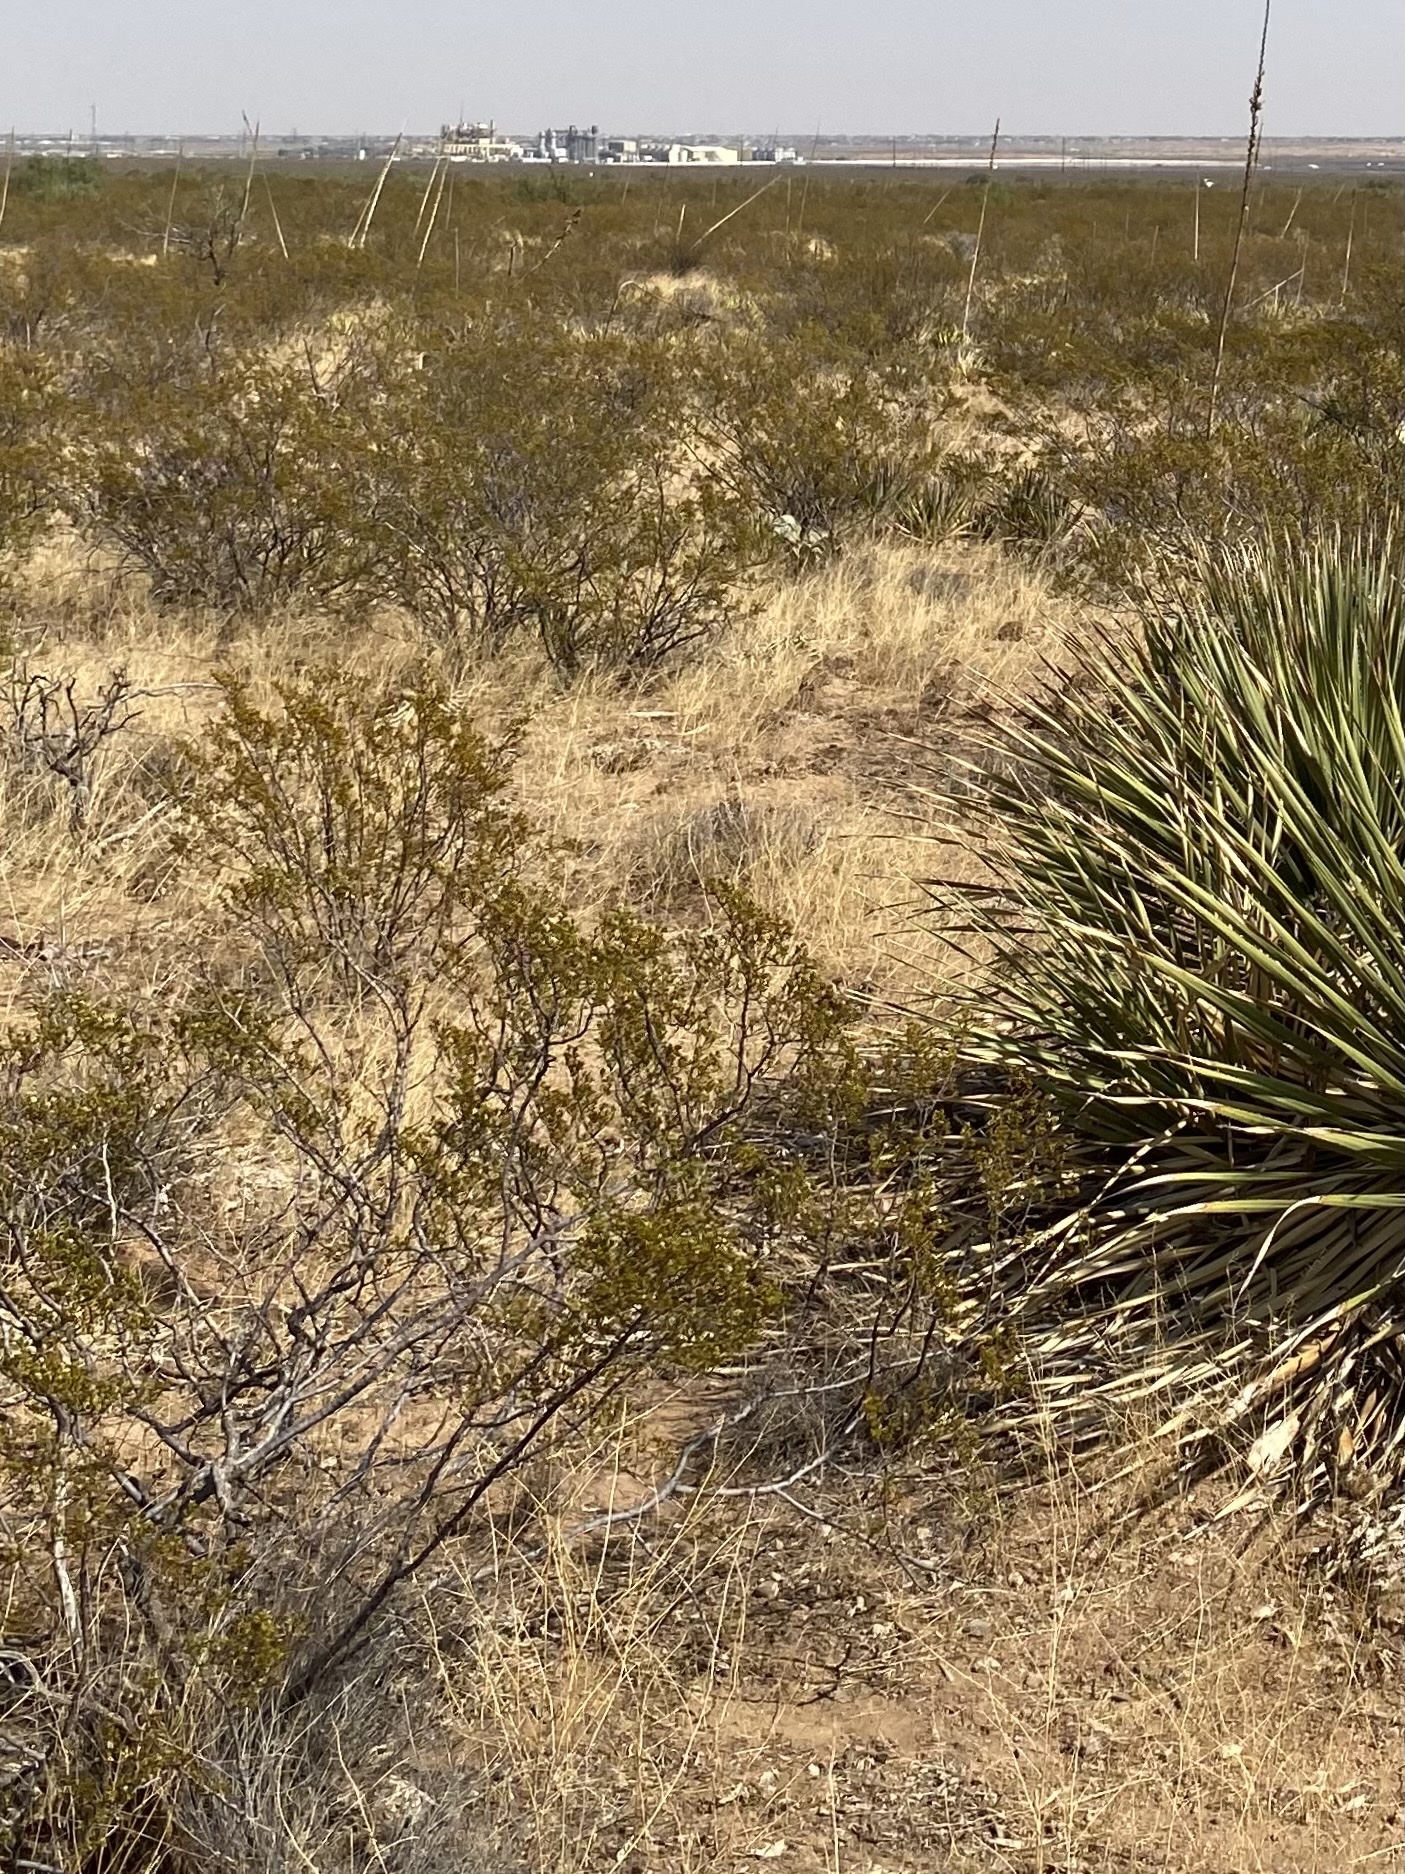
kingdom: Plantae
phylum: Tracheophyta
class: Magnoliopsida
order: Zygophyllales
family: Zygophyllaceae
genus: Larrea
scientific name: Larrea tridentata
